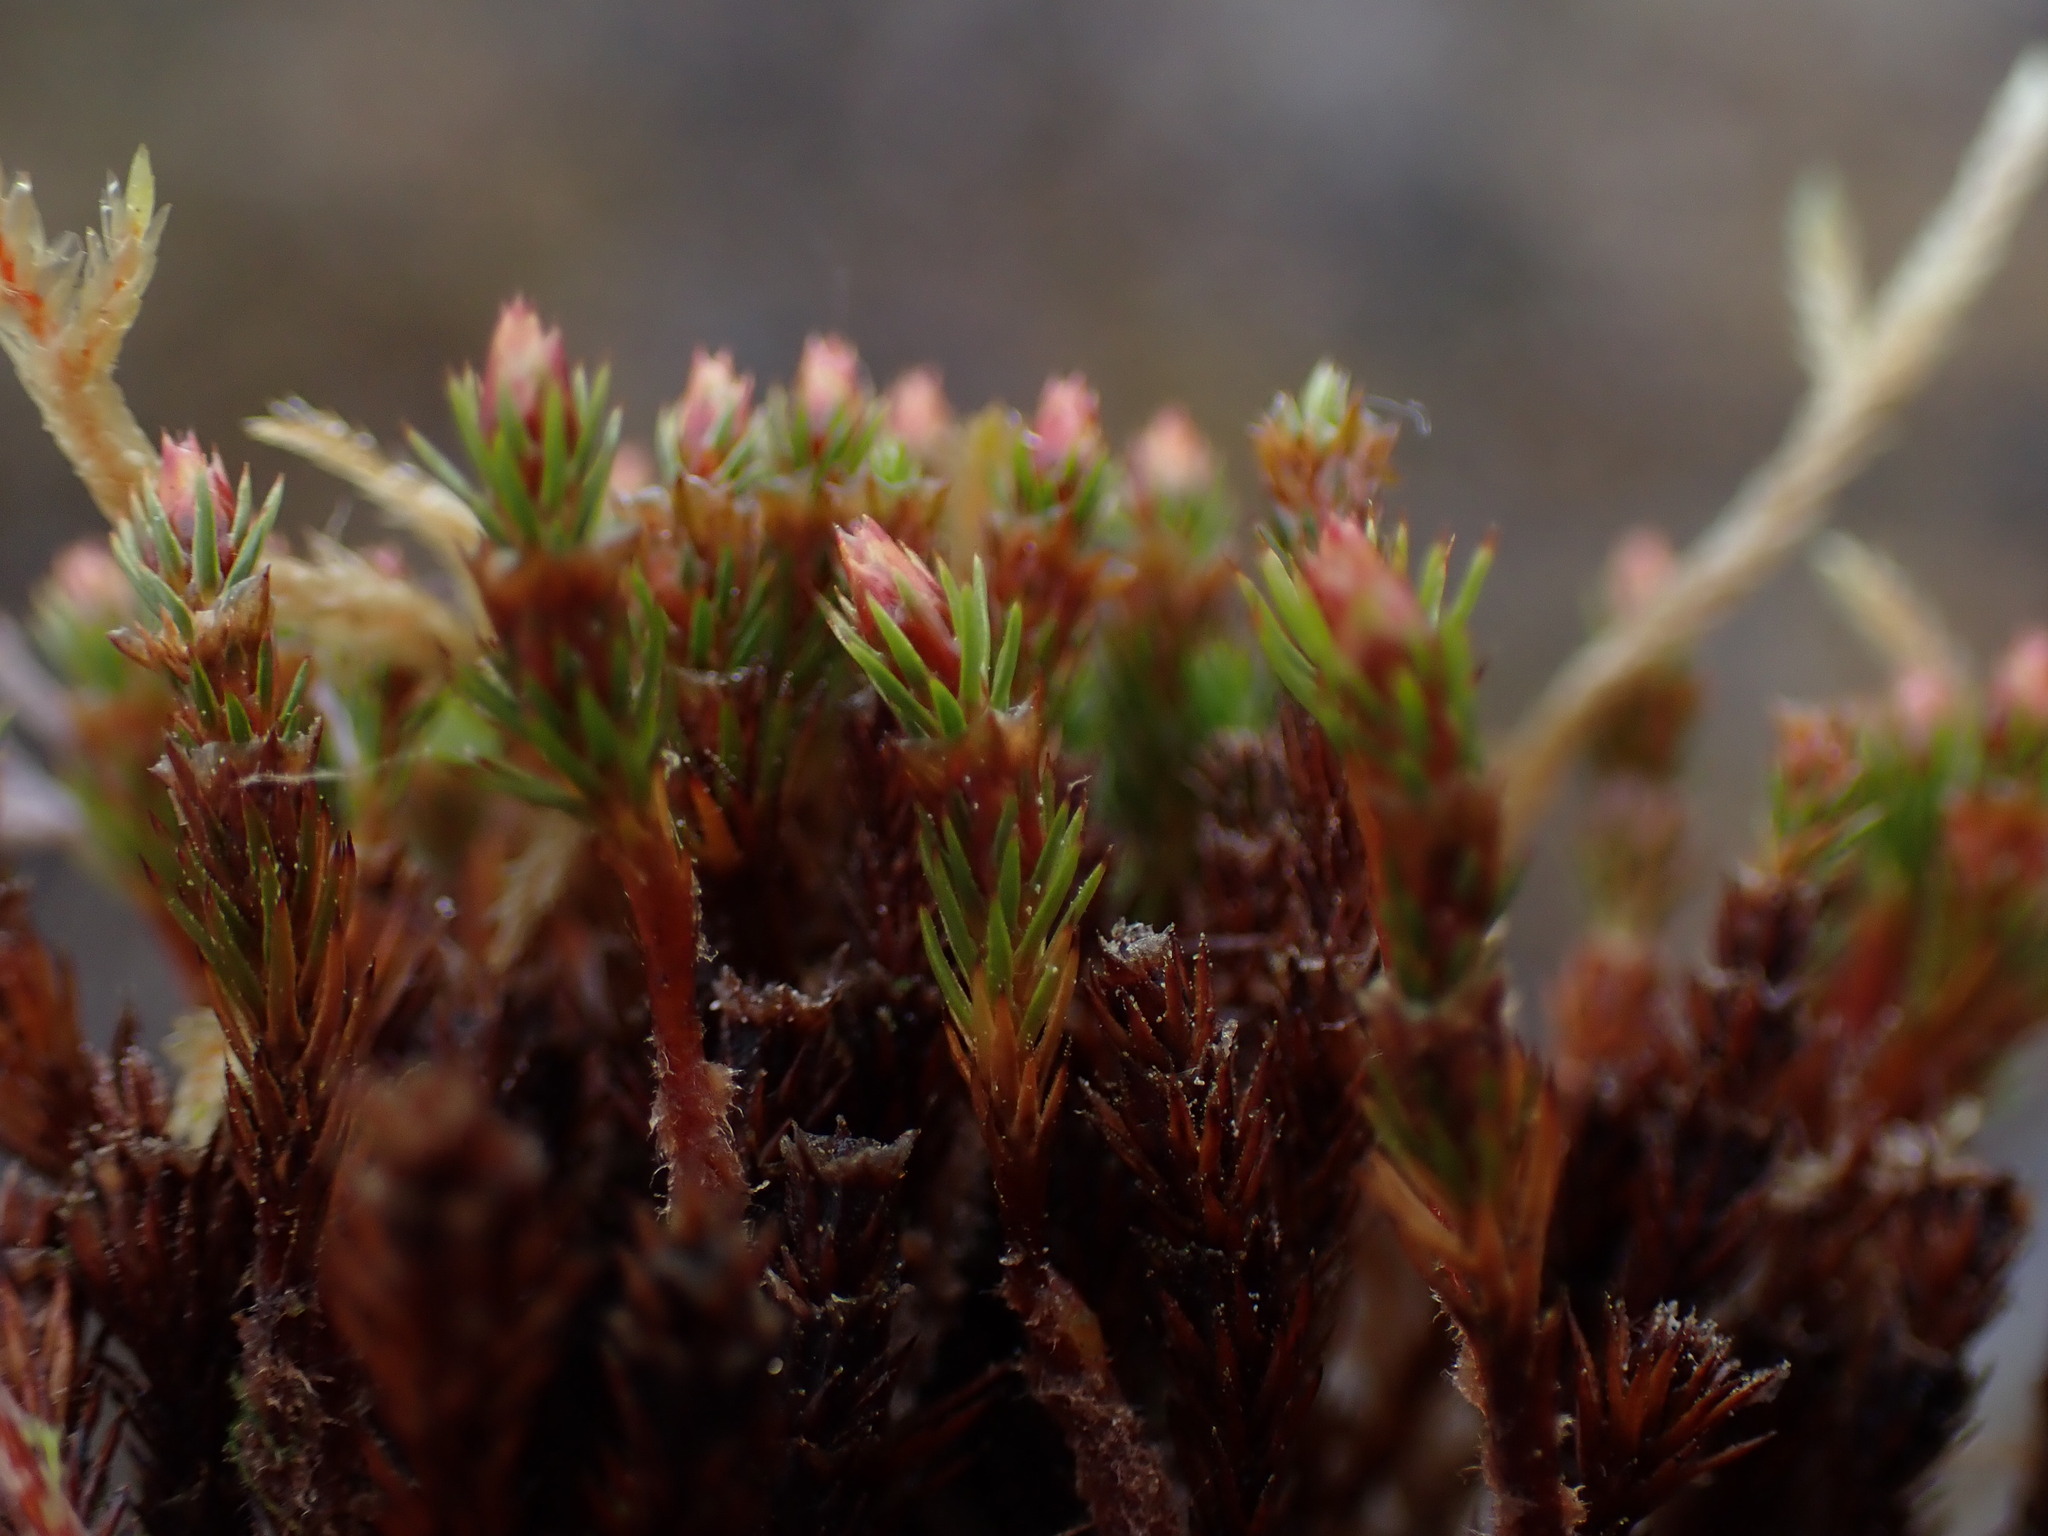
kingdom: Plantae
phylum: Bryophyta
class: Polytrichopsida
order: Polytrichales
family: Polytrichaceae
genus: Polytrichum
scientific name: Polytrichum strictum
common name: Bog haircap moss
